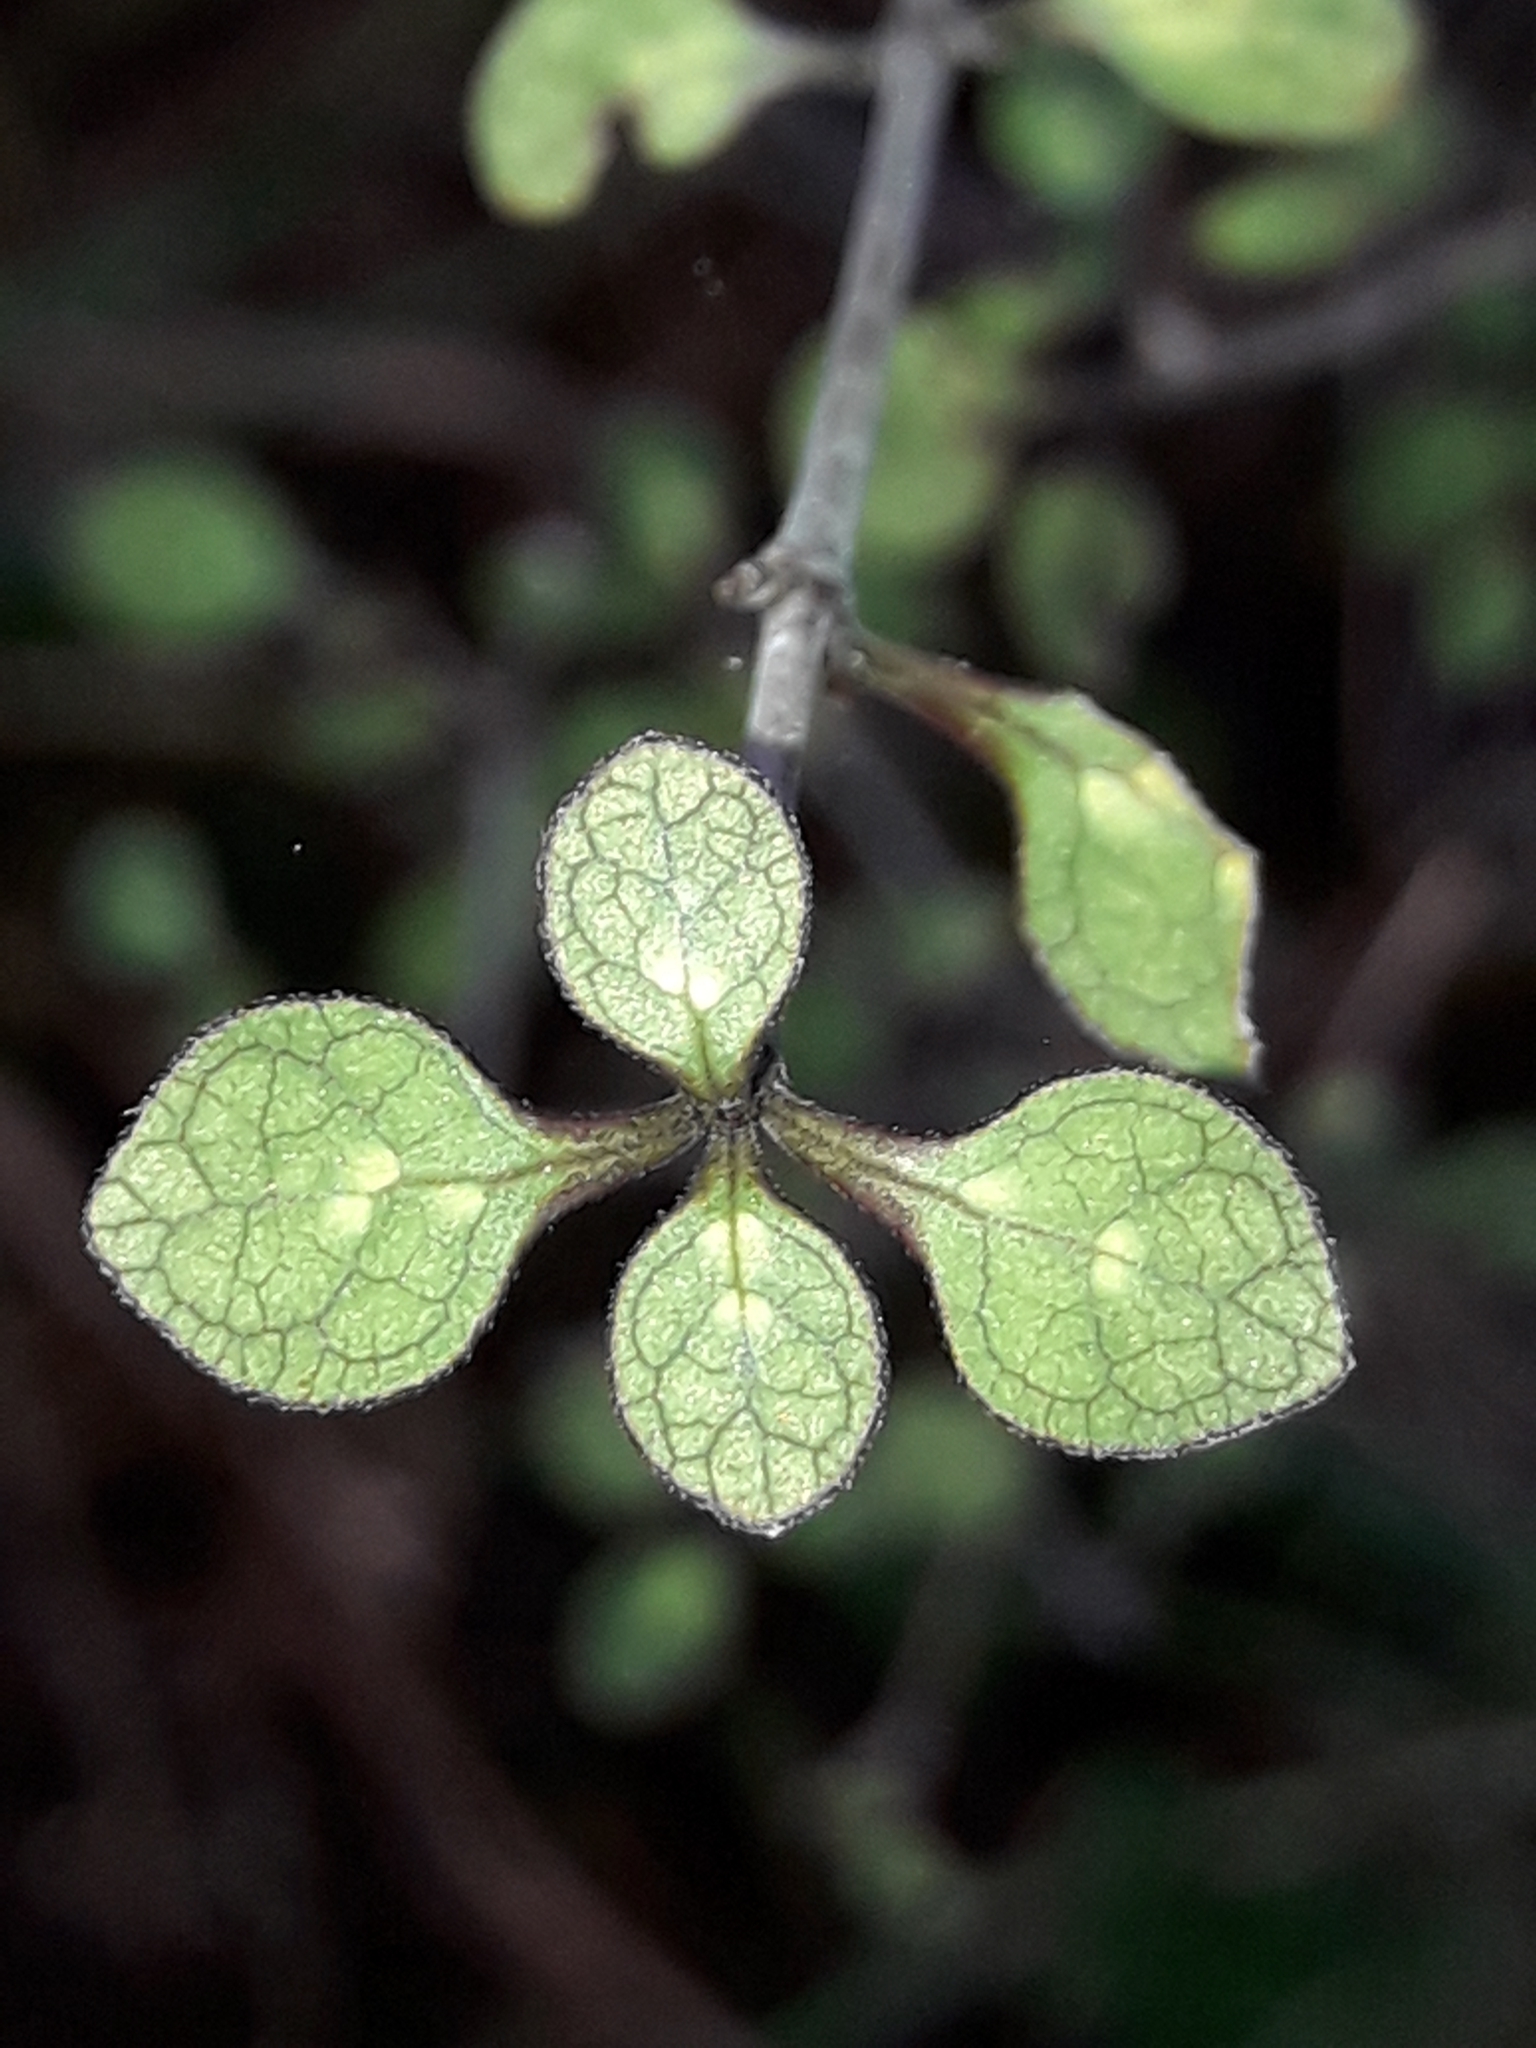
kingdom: Plantae
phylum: Tracheophyta
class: Magnoliopsida
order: Gentianales
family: Rubiaceae
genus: Coprosma
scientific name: Coprosma tenuicaulis
